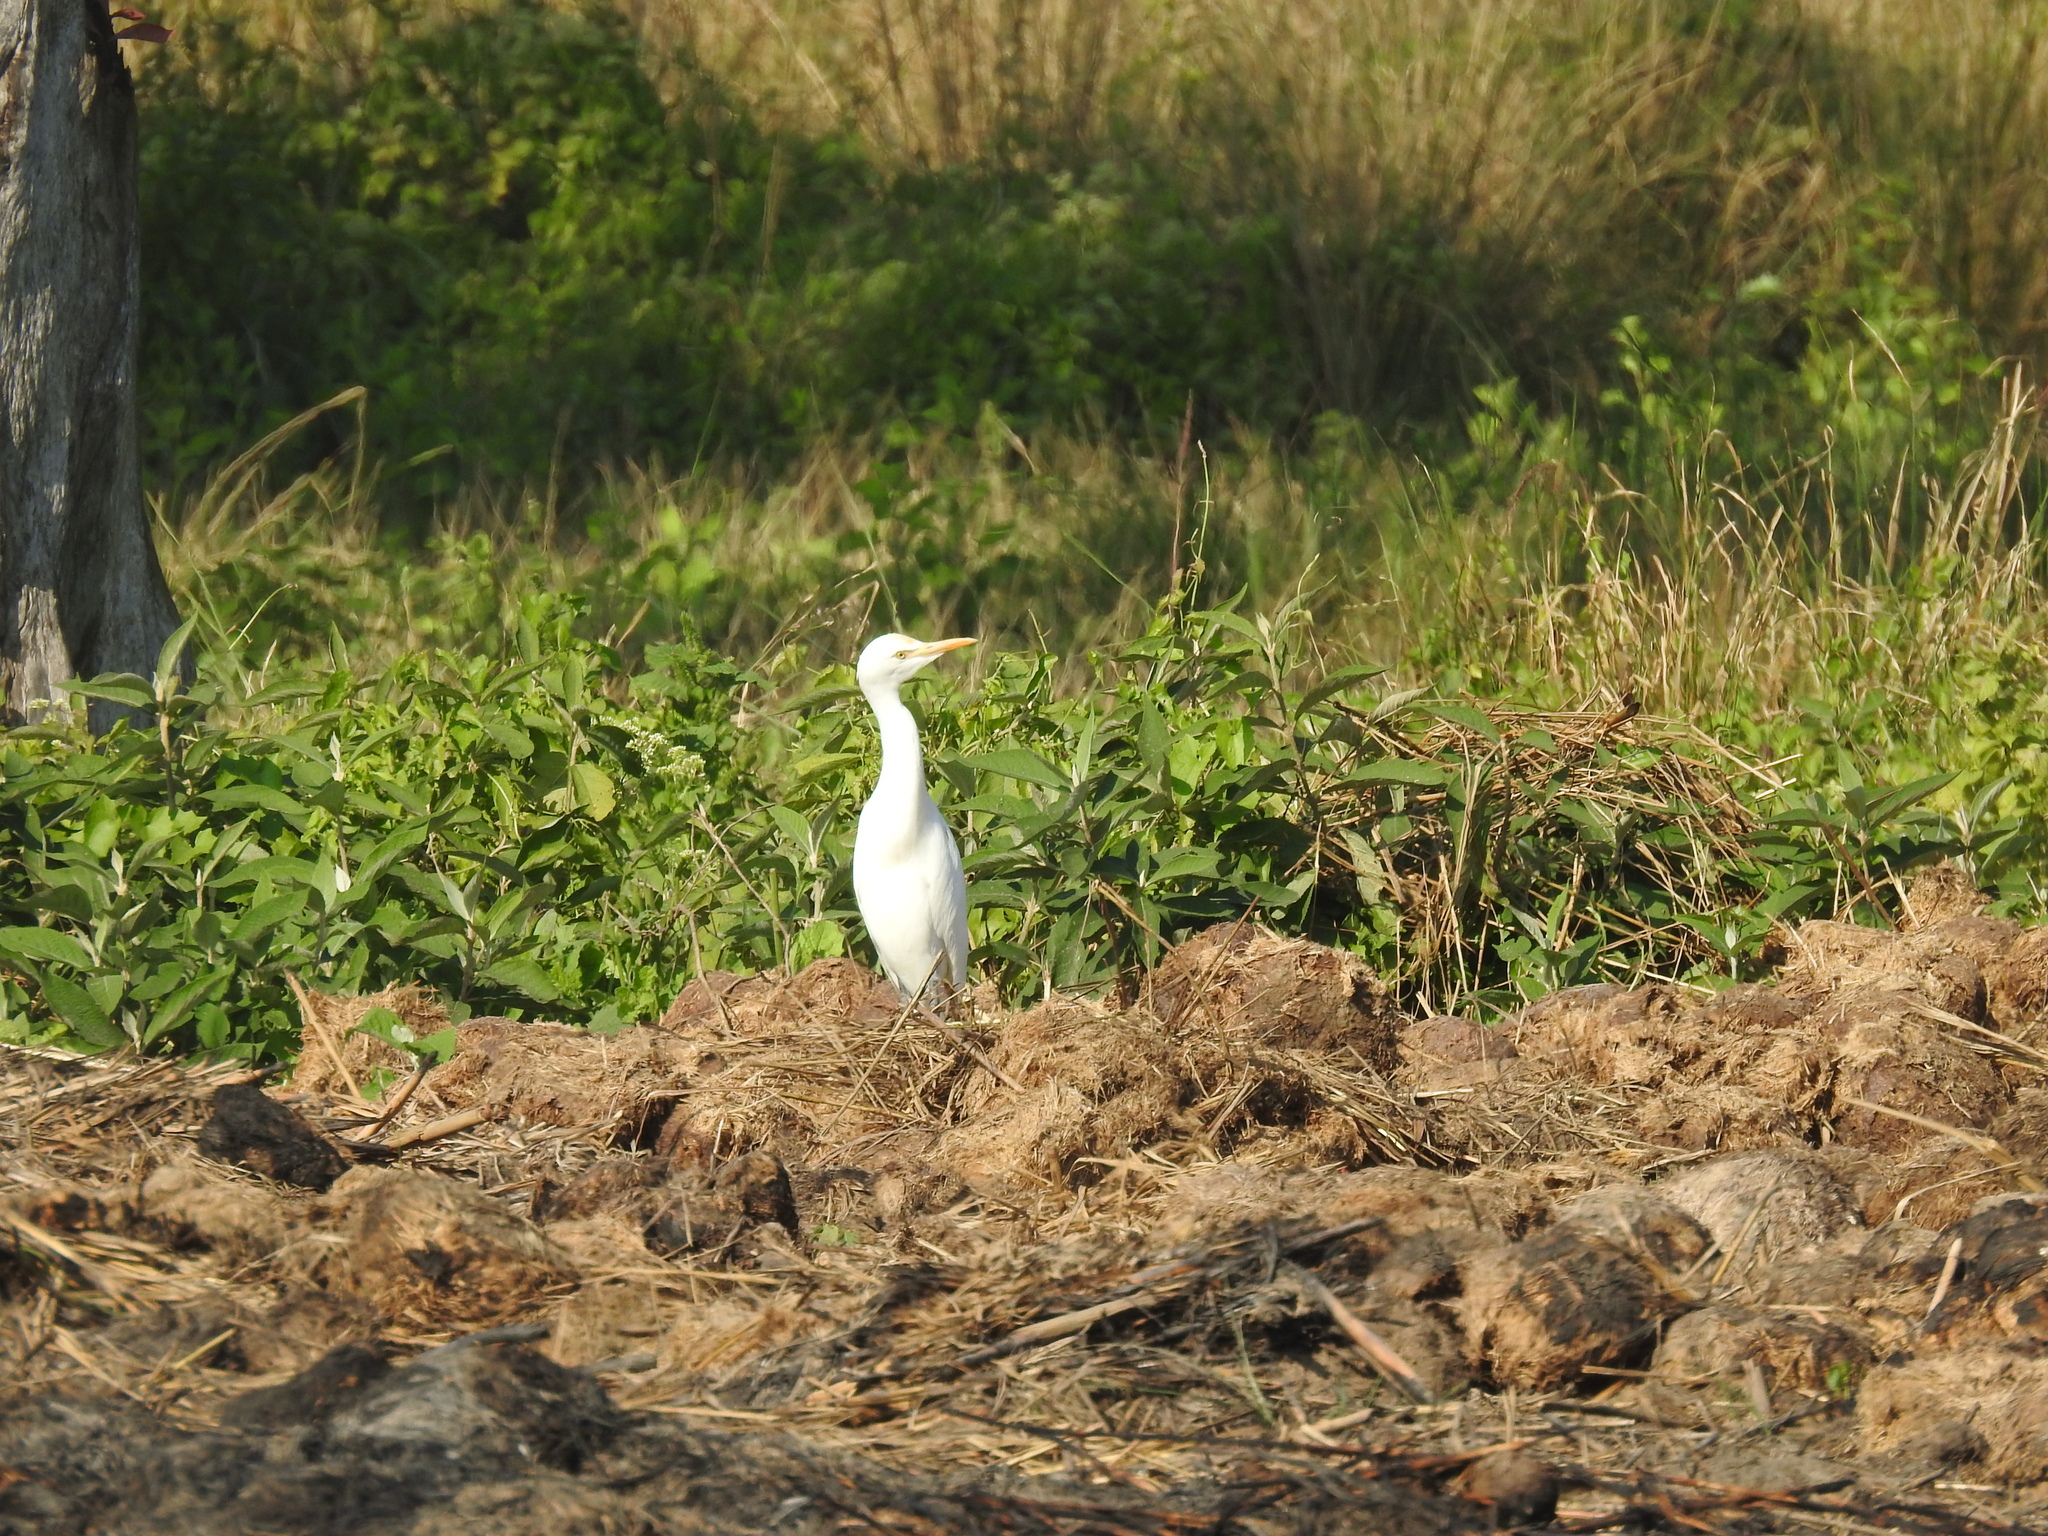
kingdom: Animalia
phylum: Chordata
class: Aves
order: Pelecaniformes
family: Ardeidae
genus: Bubulcus
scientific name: Bubulcus coromandus
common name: Eastern cattle egret
